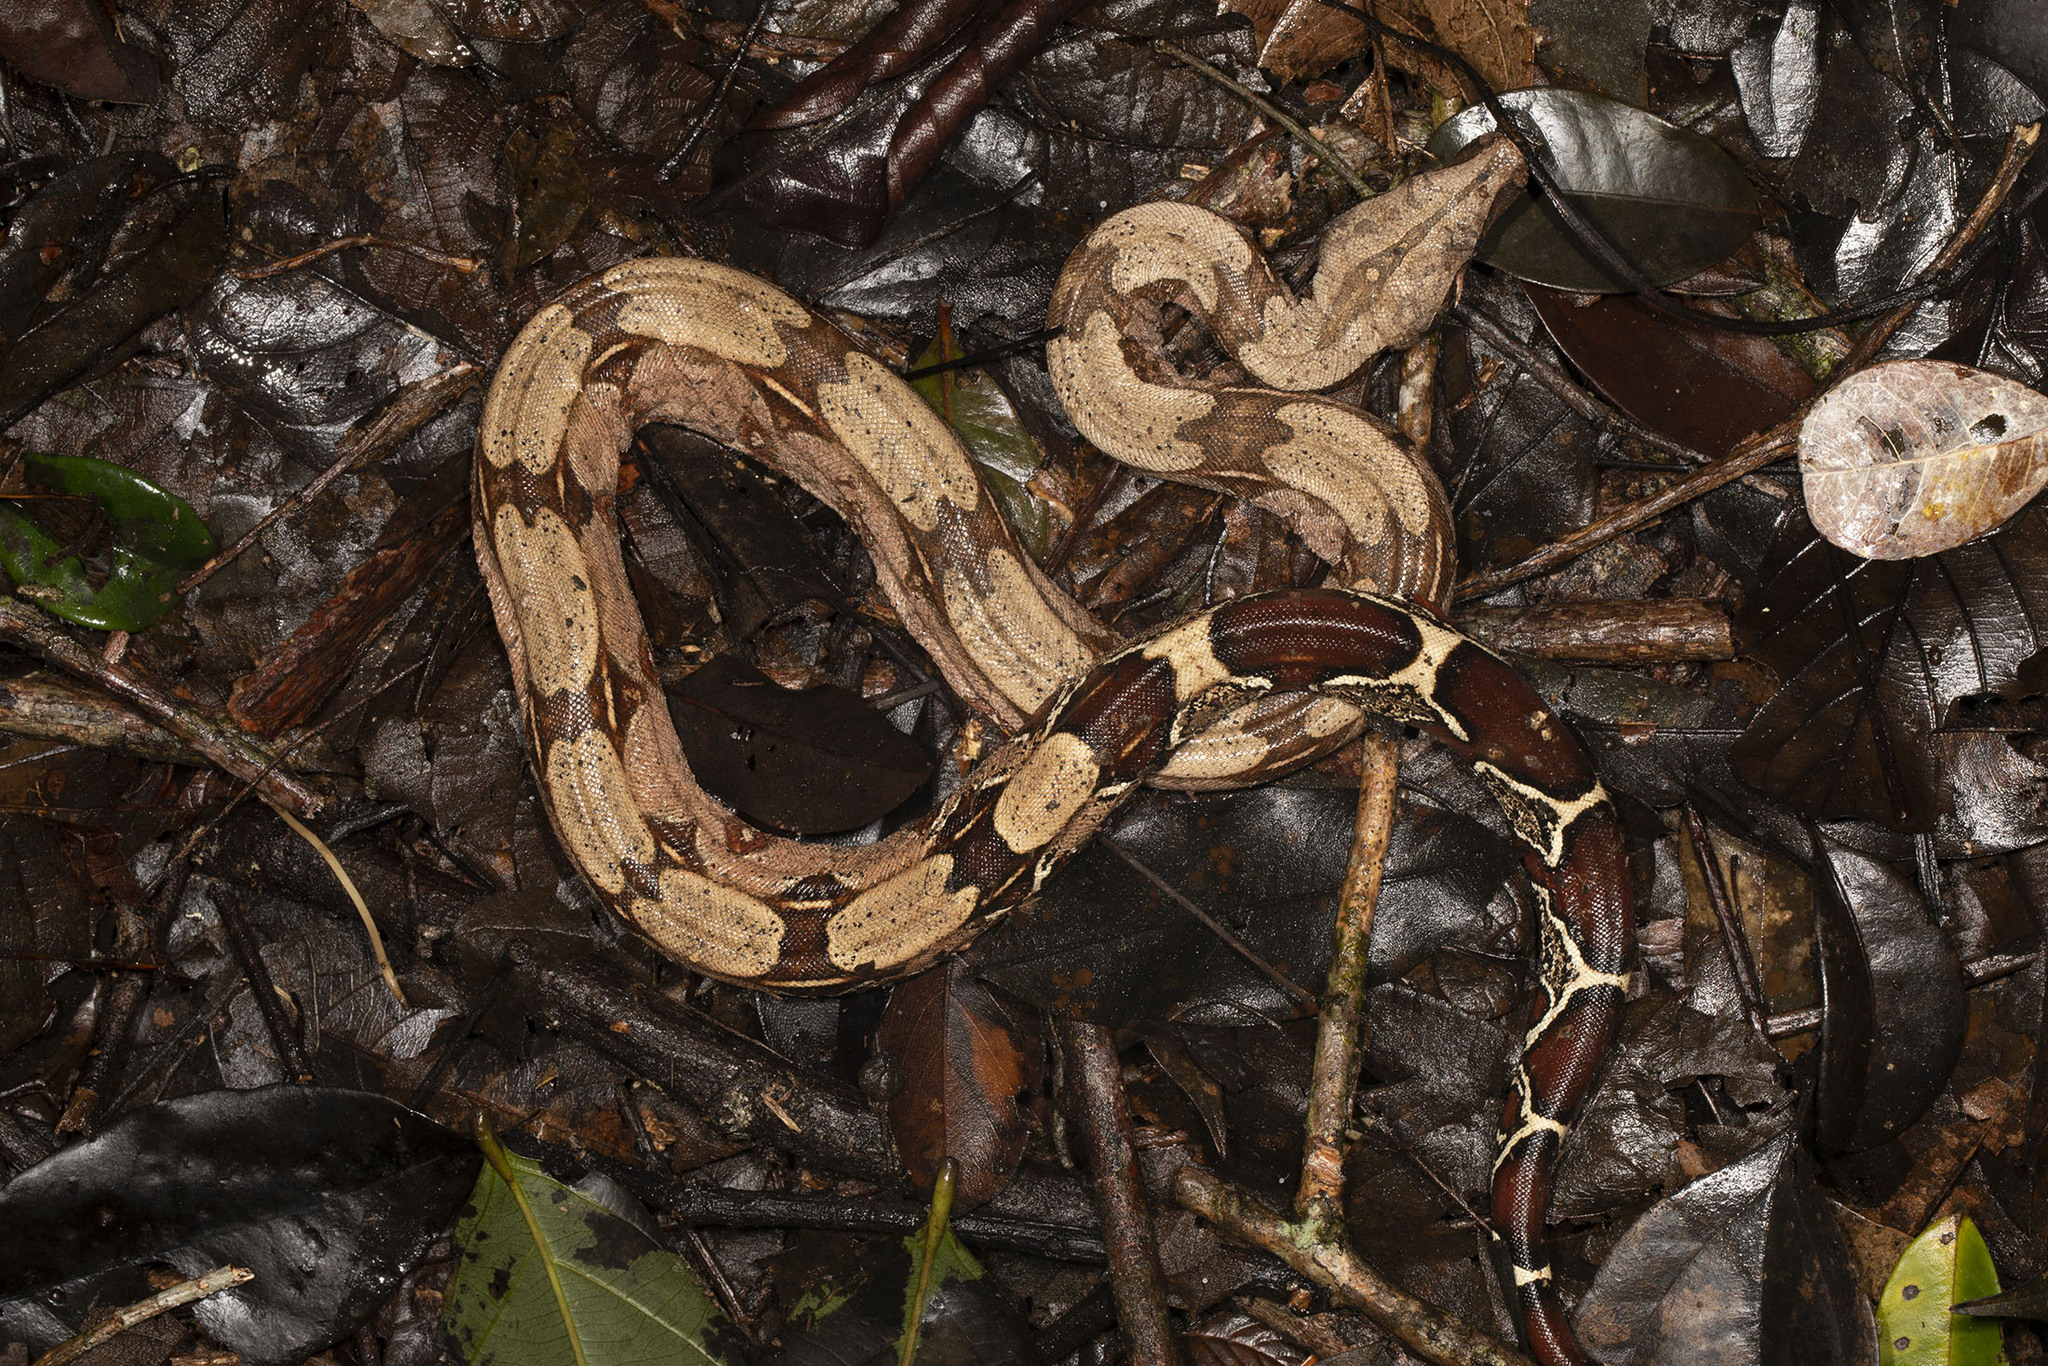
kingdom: Animalia
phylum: Chordata
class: Squamata
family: Boidae
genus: Boa
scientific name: Boa constrictor
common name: Boa constrictor
